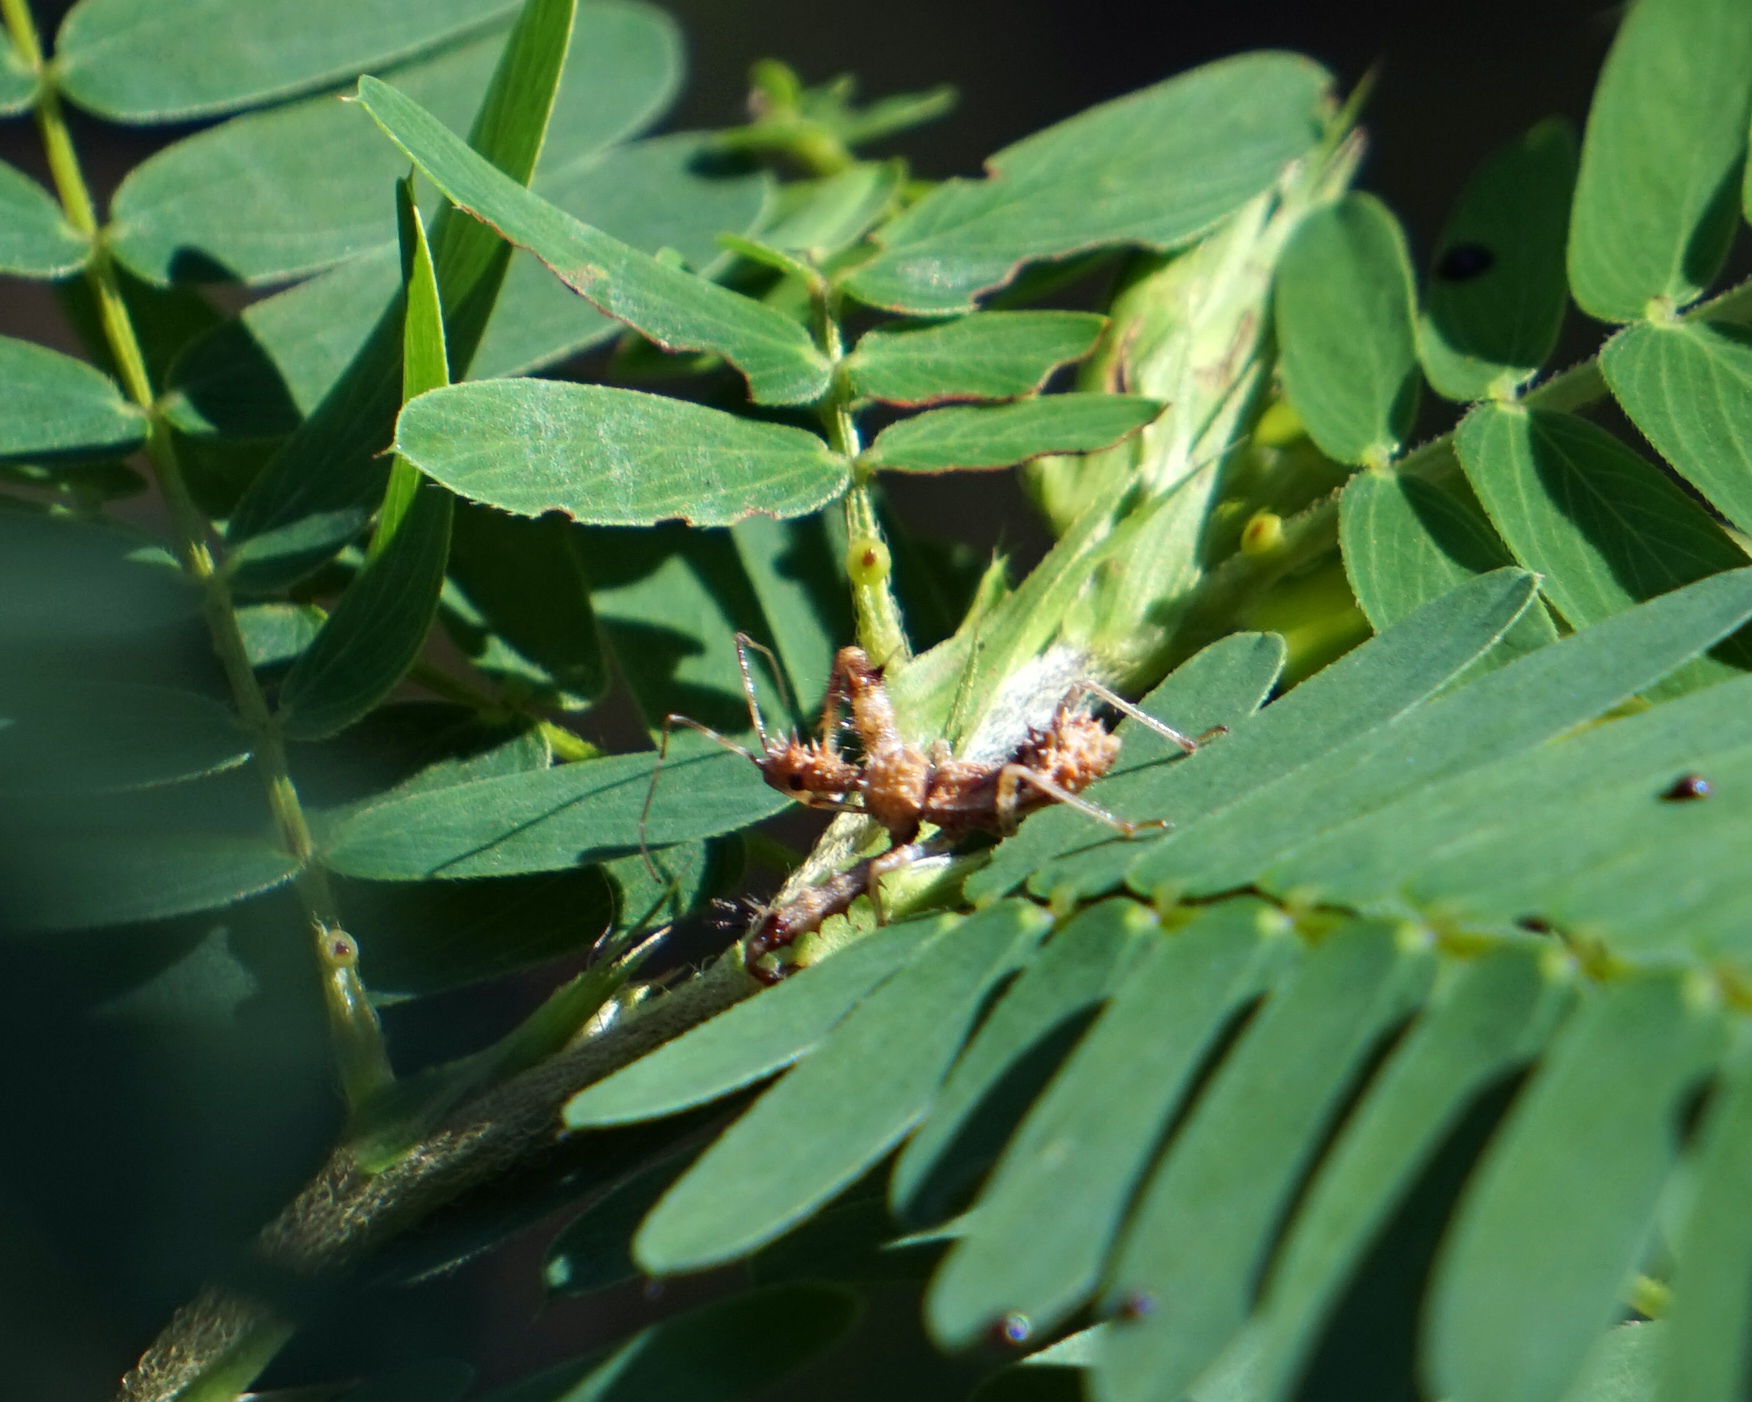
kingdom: Animalia
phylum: Arthropoda
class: Insecta
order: Hemiptera
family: Reduviidae
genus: Sinea
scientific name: Sinea spinipes
